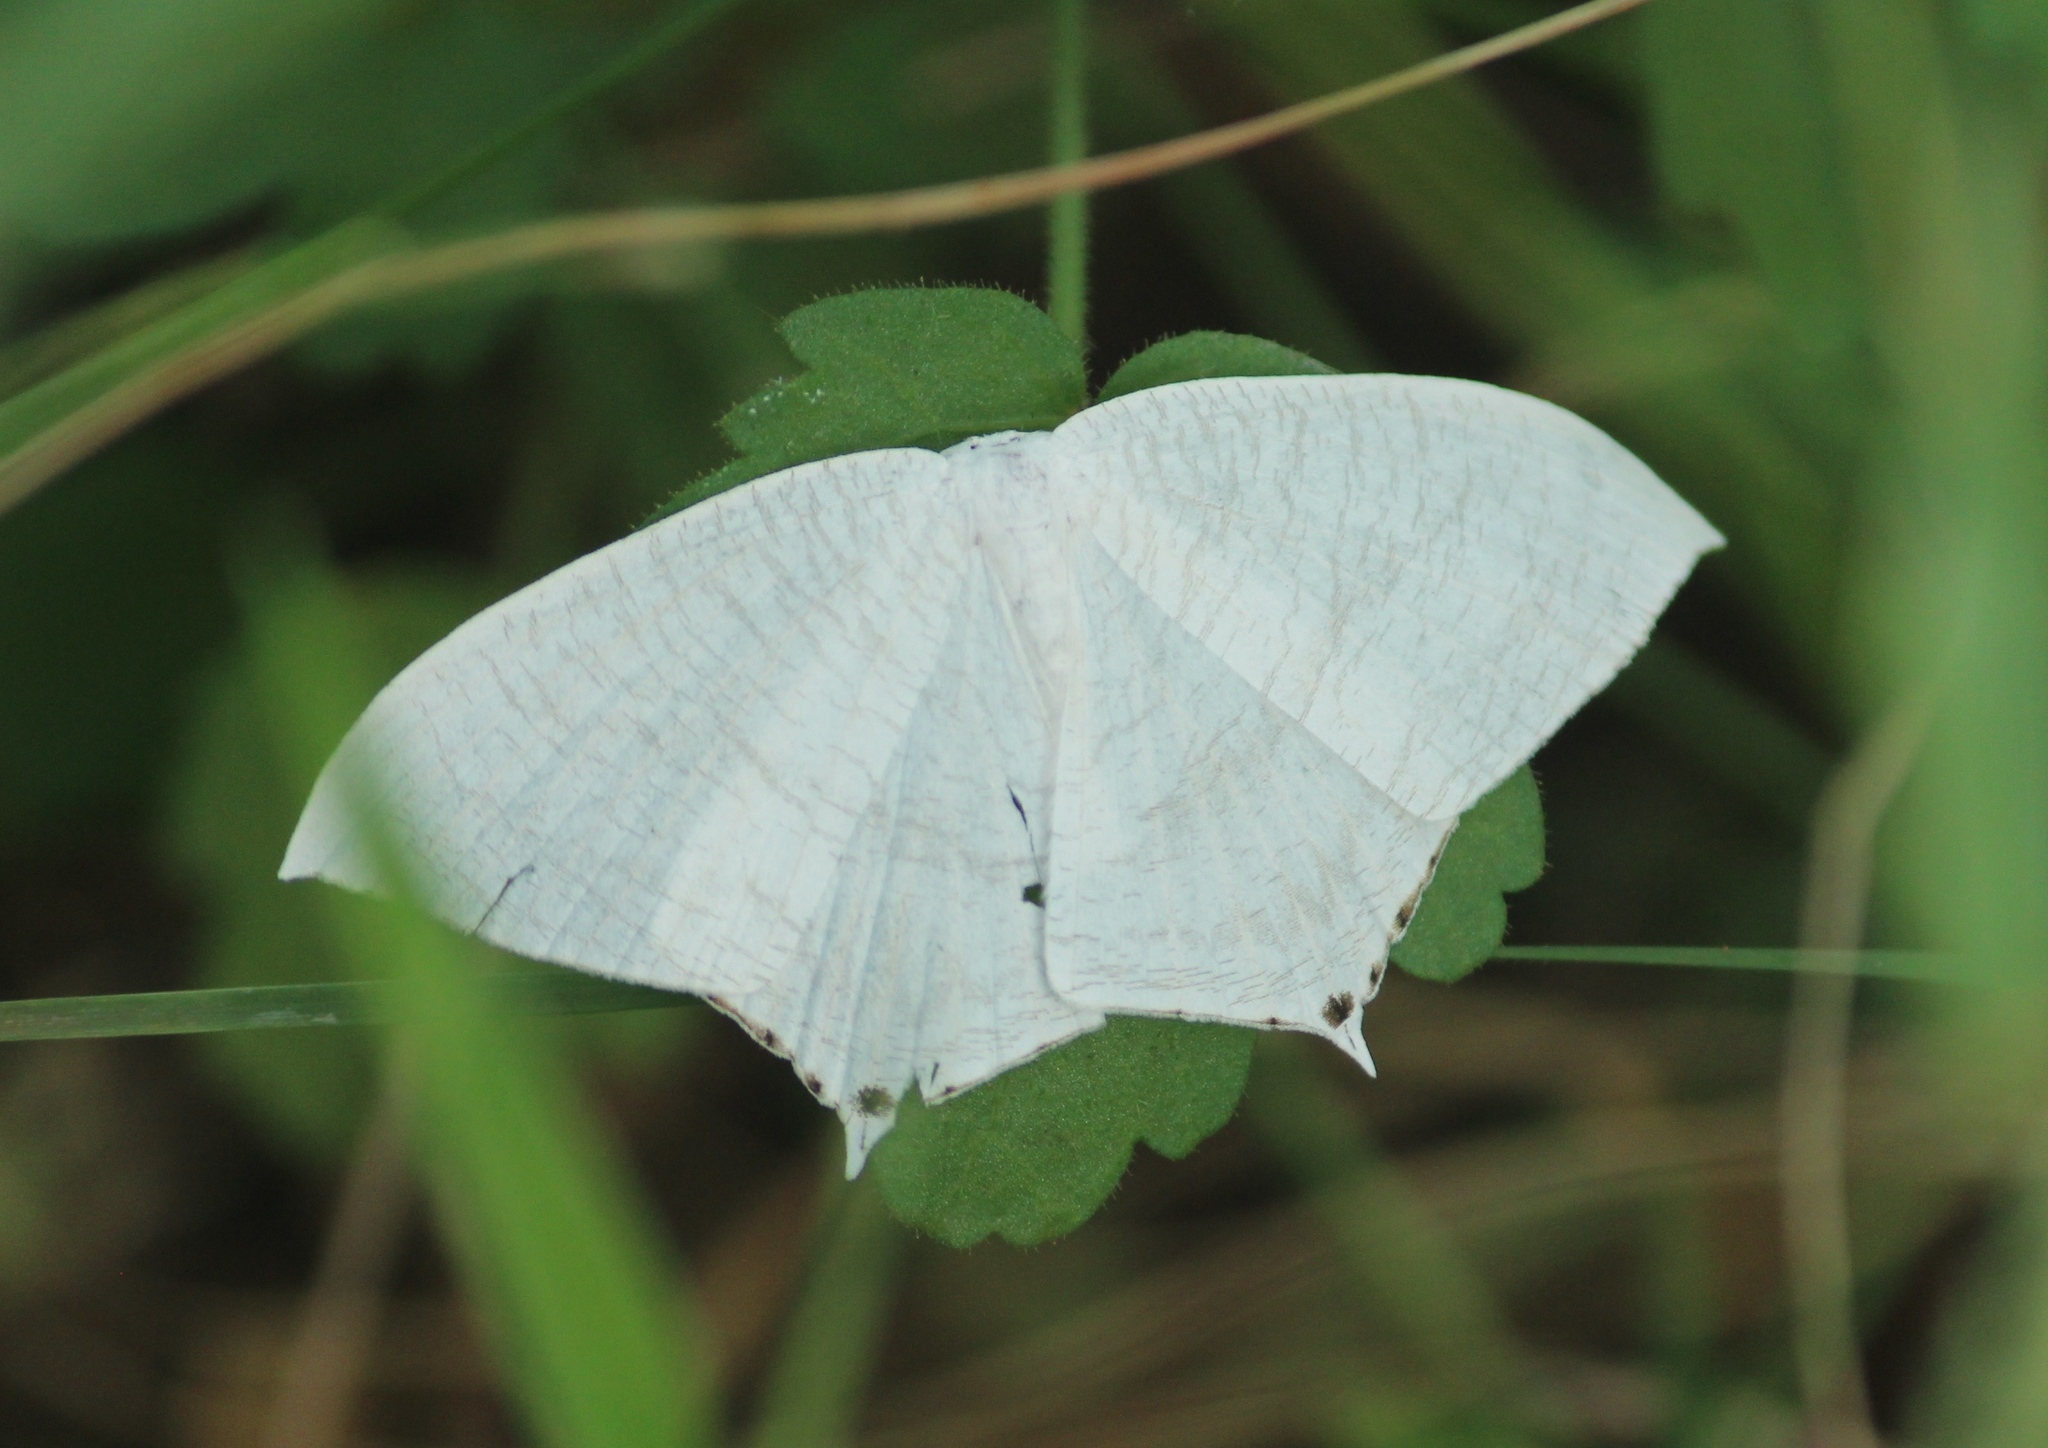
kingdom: Animalia
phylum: Arthropoda
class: Insecta
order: Lepidoptera
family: Uraniidae
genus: Micronia
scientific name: Micronia aculeata
